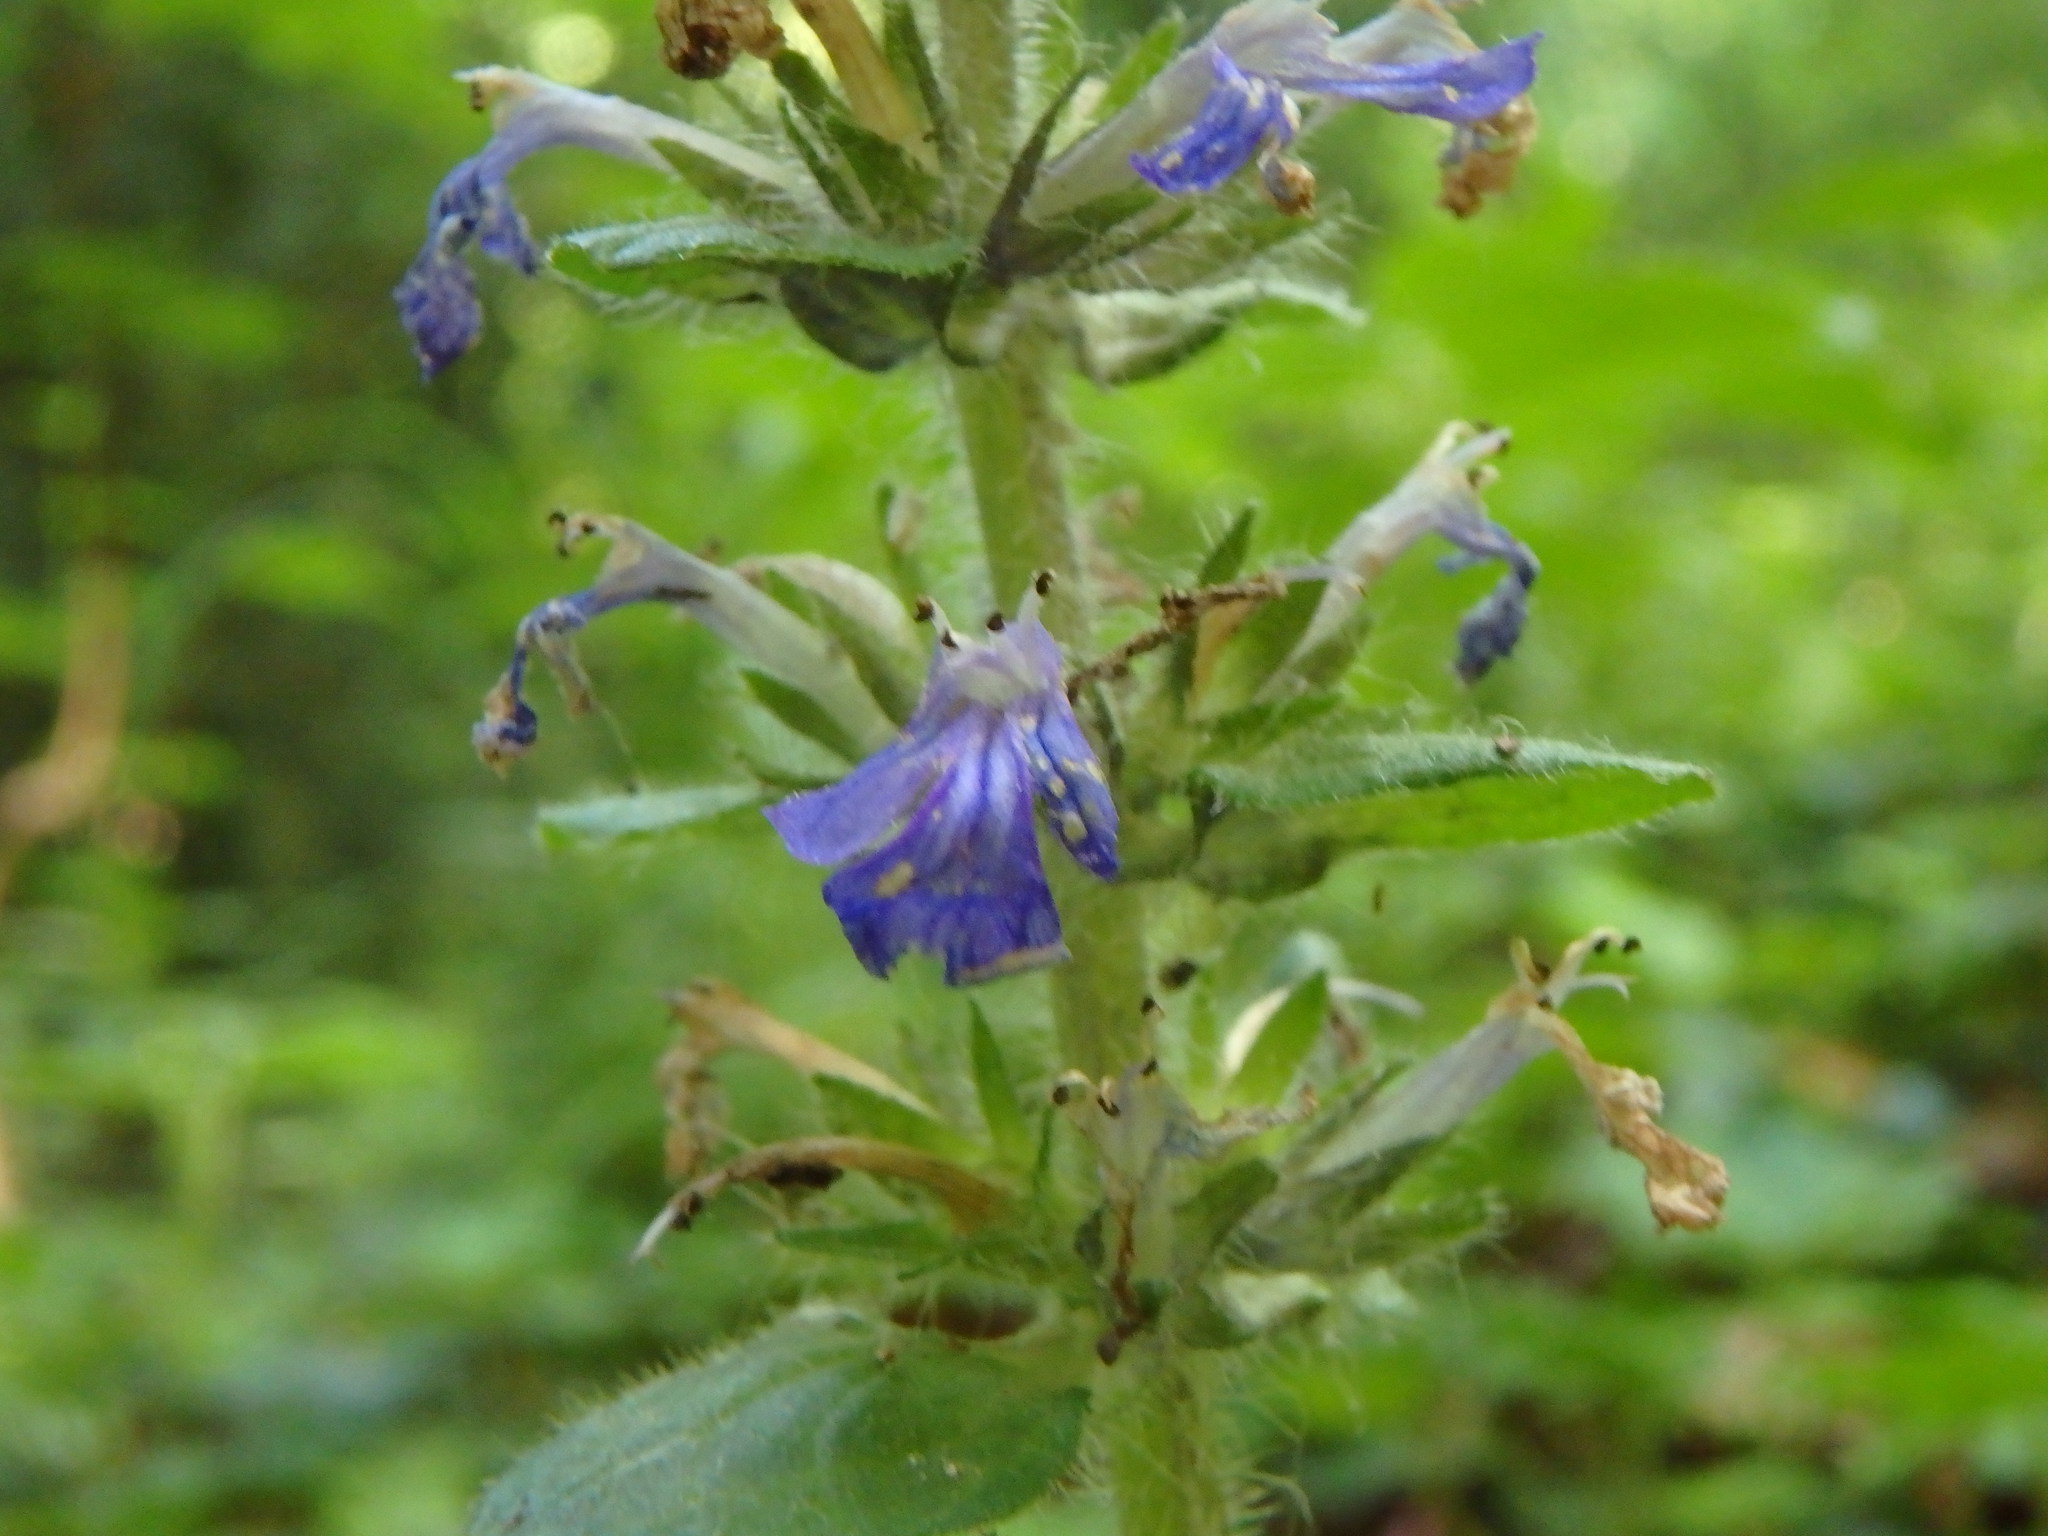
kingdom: Plantae
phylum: Tracheophyta
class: Magnoliopsida
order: Lamiales
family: Lamiaceae
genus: Ajuga
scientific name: Ajuga reptans
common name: Bugle
